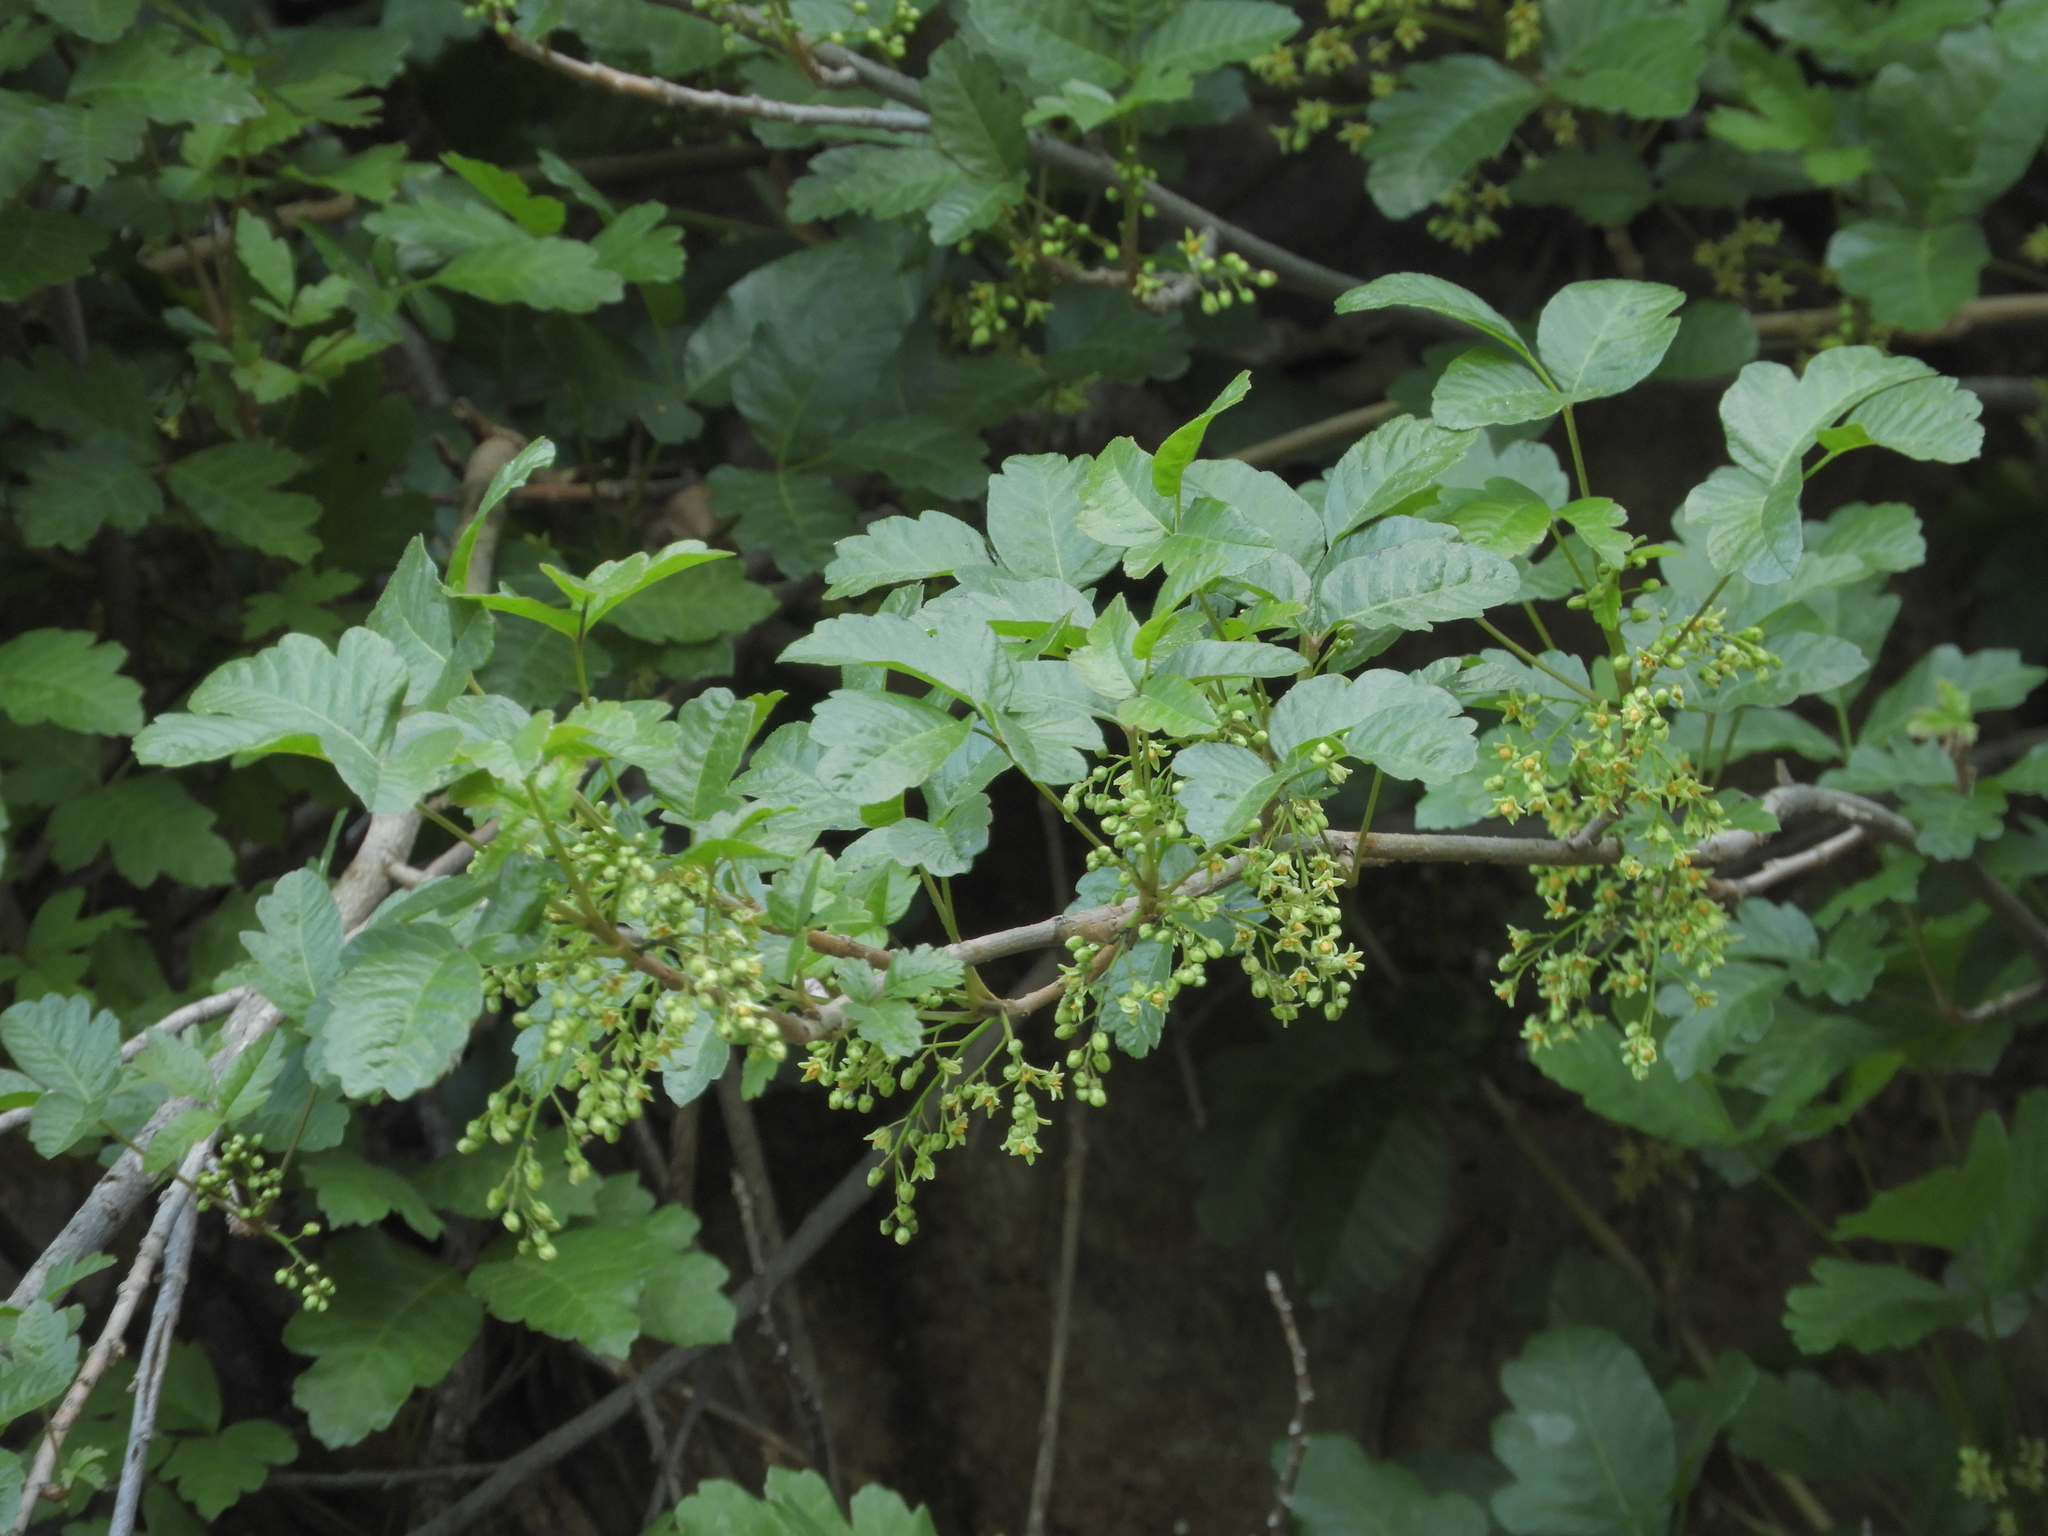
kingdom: Plantae
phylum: Tracheophyta
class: Magnoliopsida
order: Sapindales
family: Anacardiaceae
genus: Toxicodendron
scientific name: Toxicodendron diversilobum
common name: Pacific poison-oak
